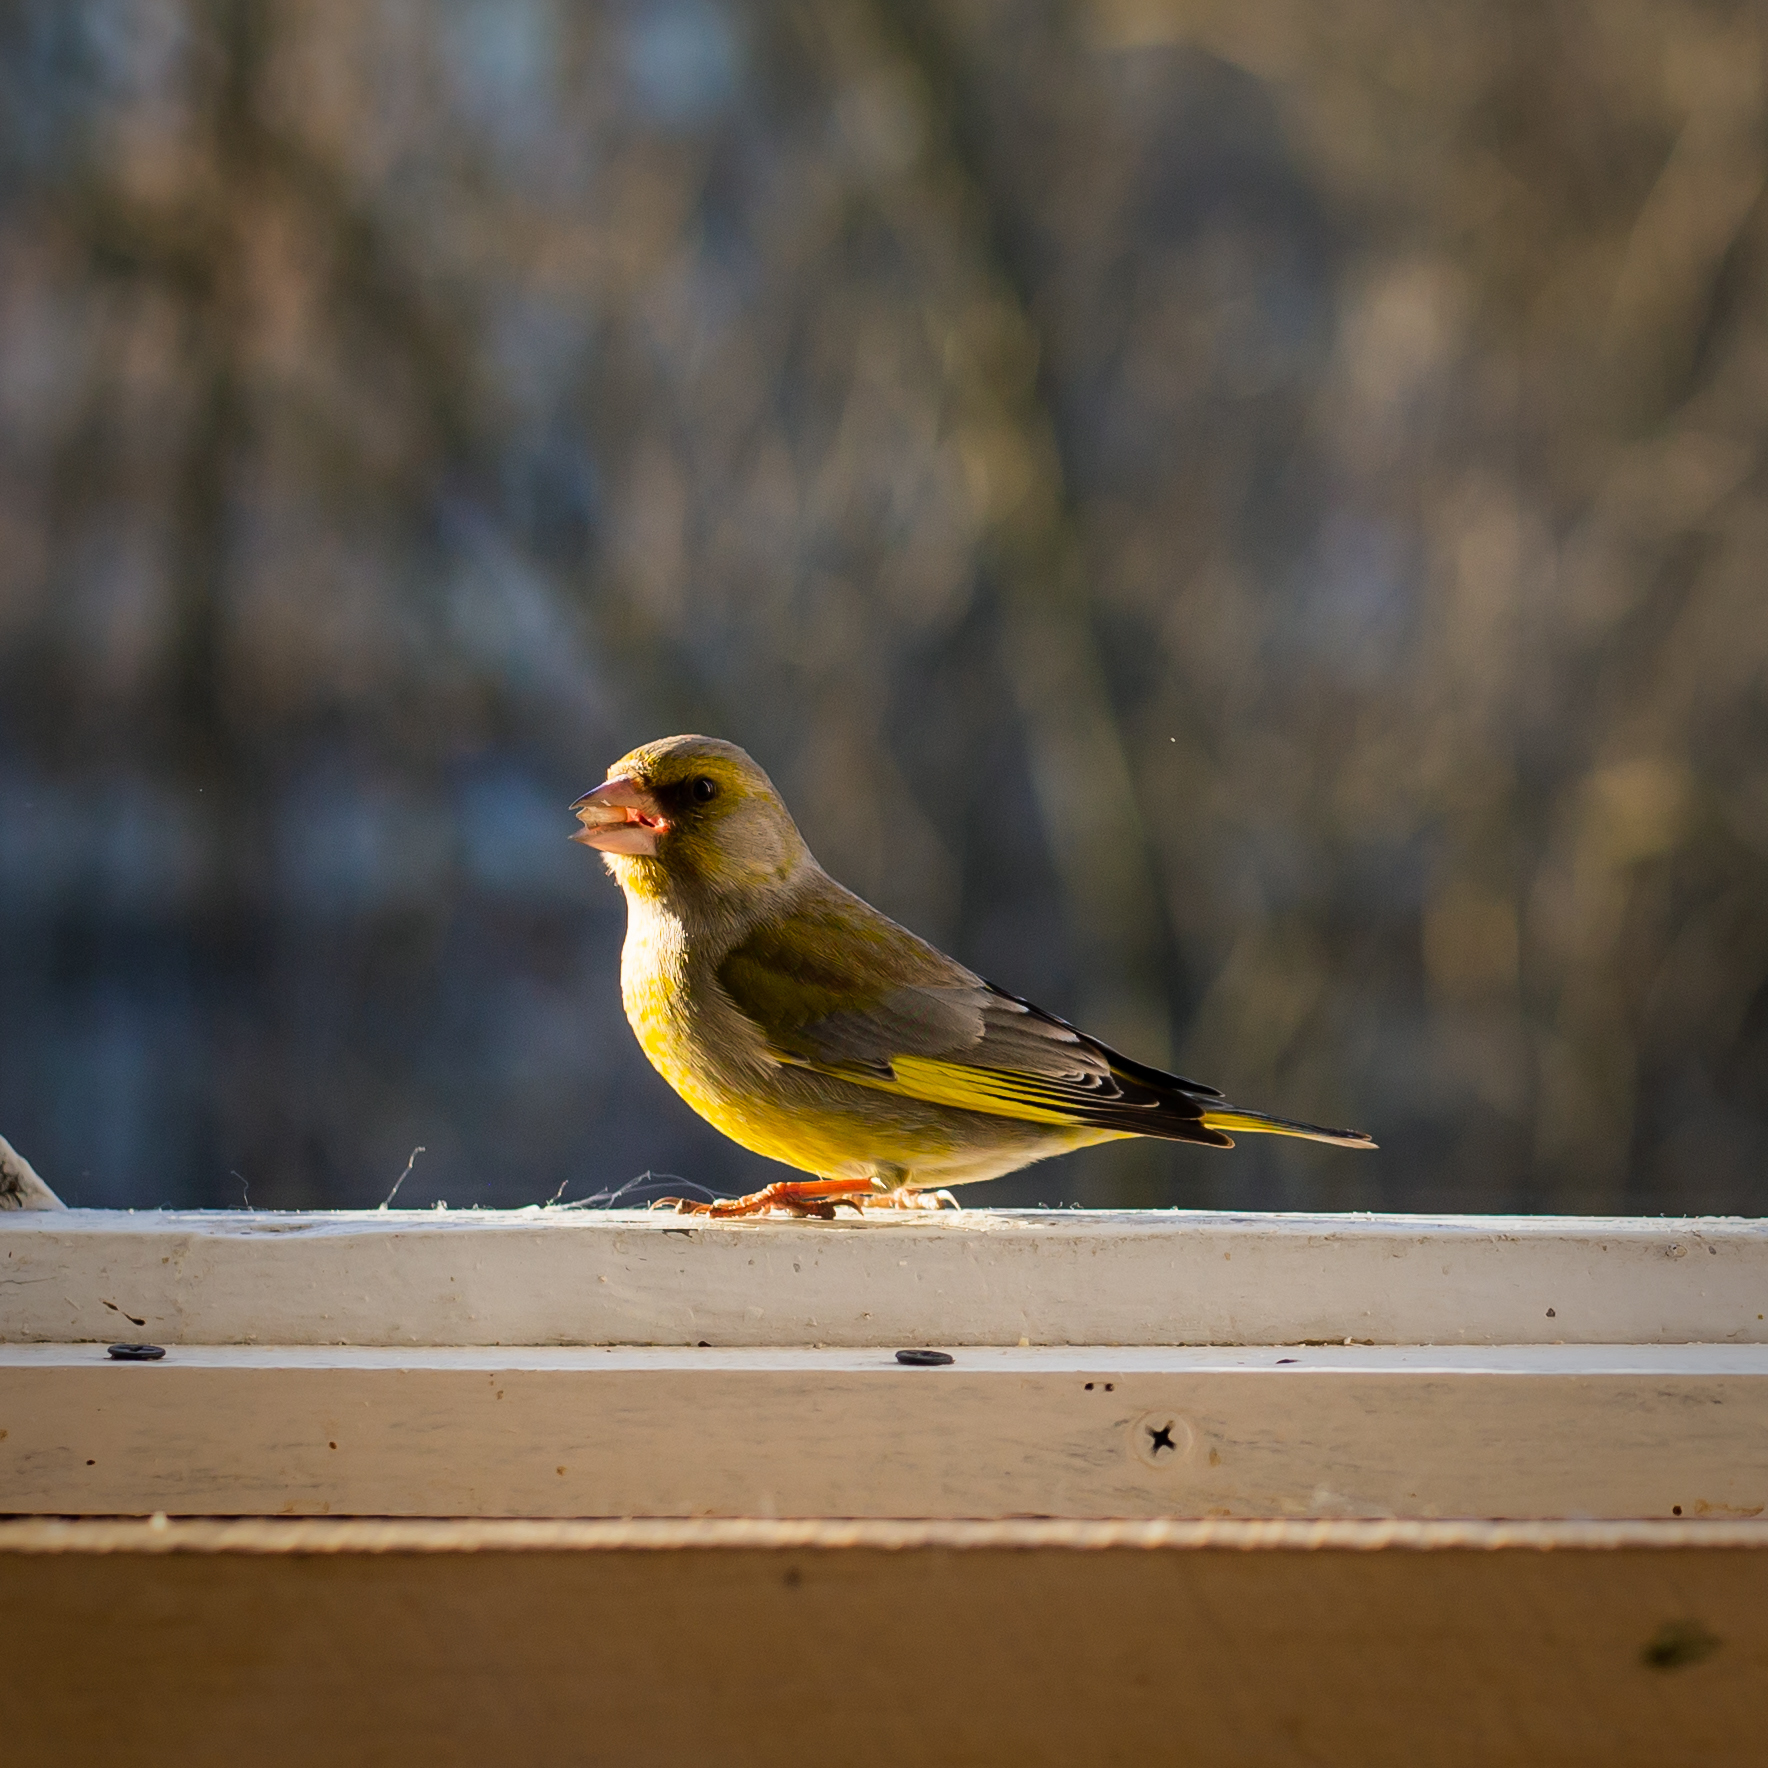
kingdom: Plantae
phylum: Tracheophyta
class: Liliopsida
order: Poales
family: Poaceae
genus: Chloris
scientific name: Chloris chloris
